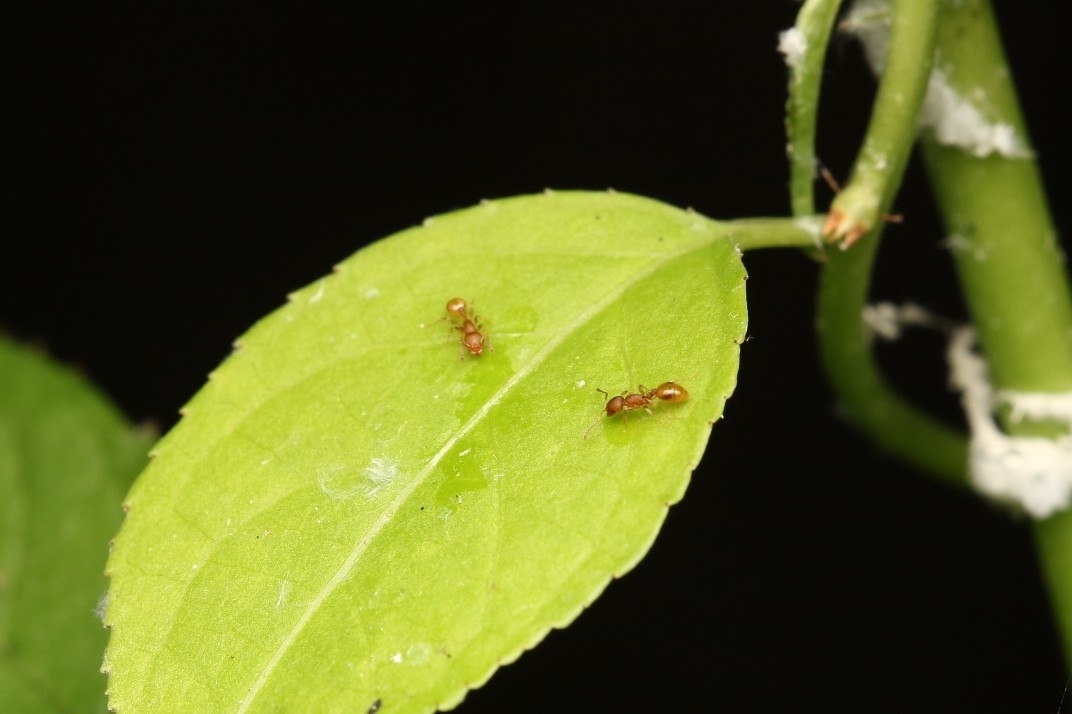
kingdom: Animalia
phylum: Arthropoda
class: Insecta
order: Hymenoptera
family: Formicidae
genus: Temnothorax
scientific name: Temnothorax curvispinosus
